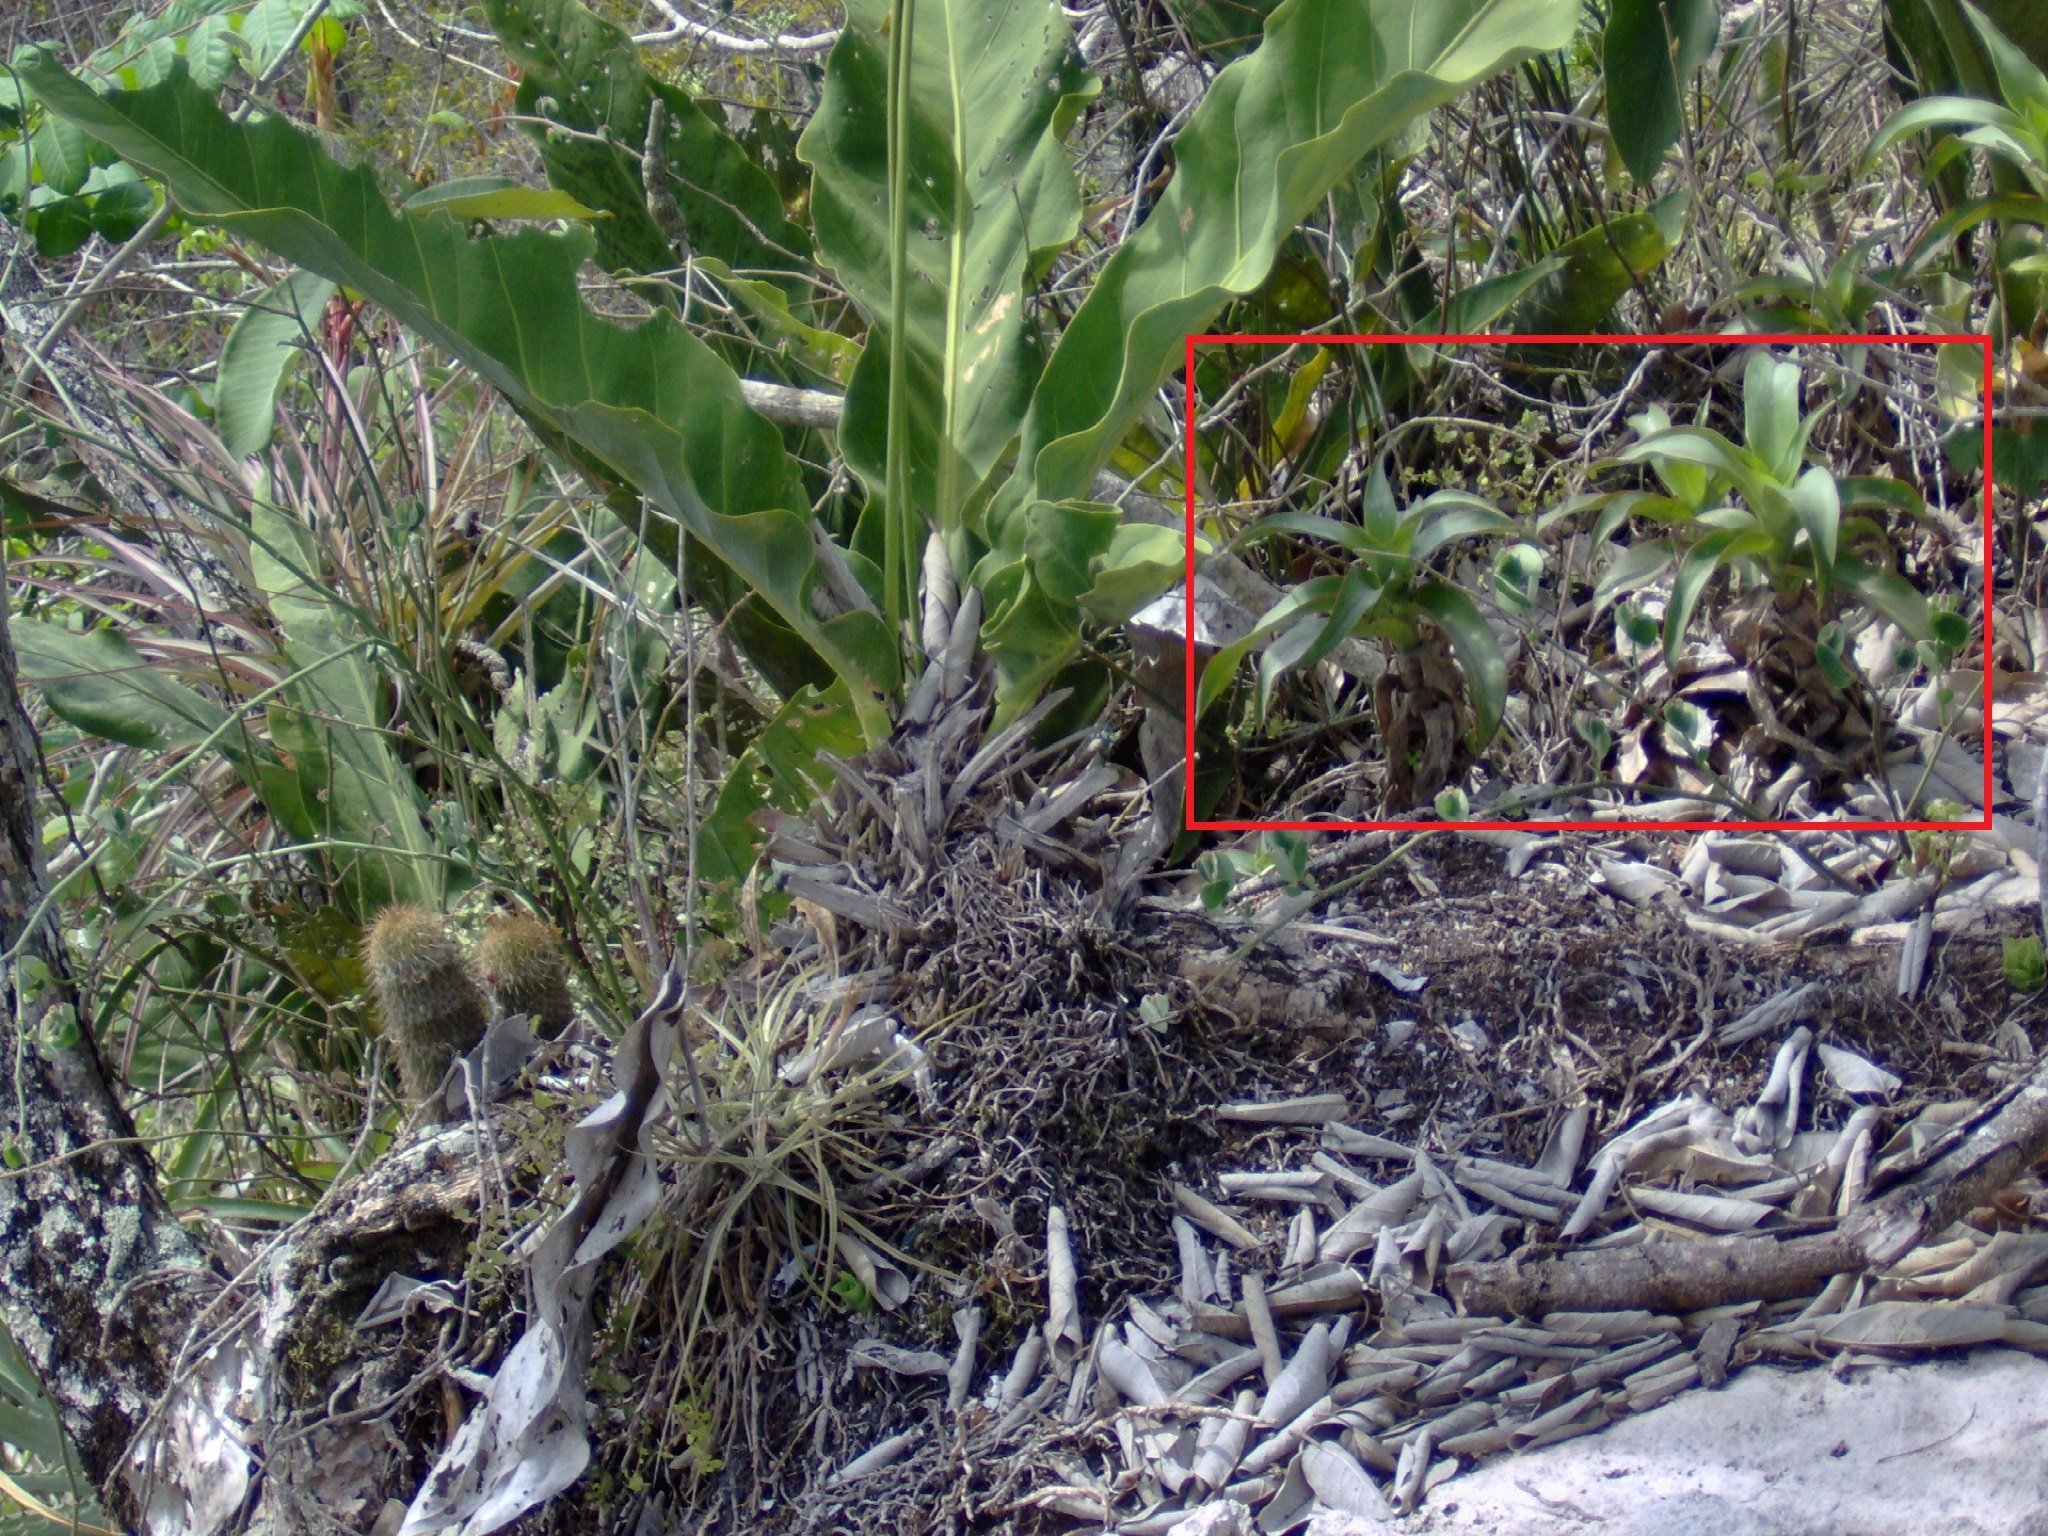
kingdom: Plantae
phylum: Tracheophyta
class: Liliopsida
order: Commelinales
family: Commelinaceae
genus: Callisia
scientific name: Callisia fragrans
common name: Basketplant
